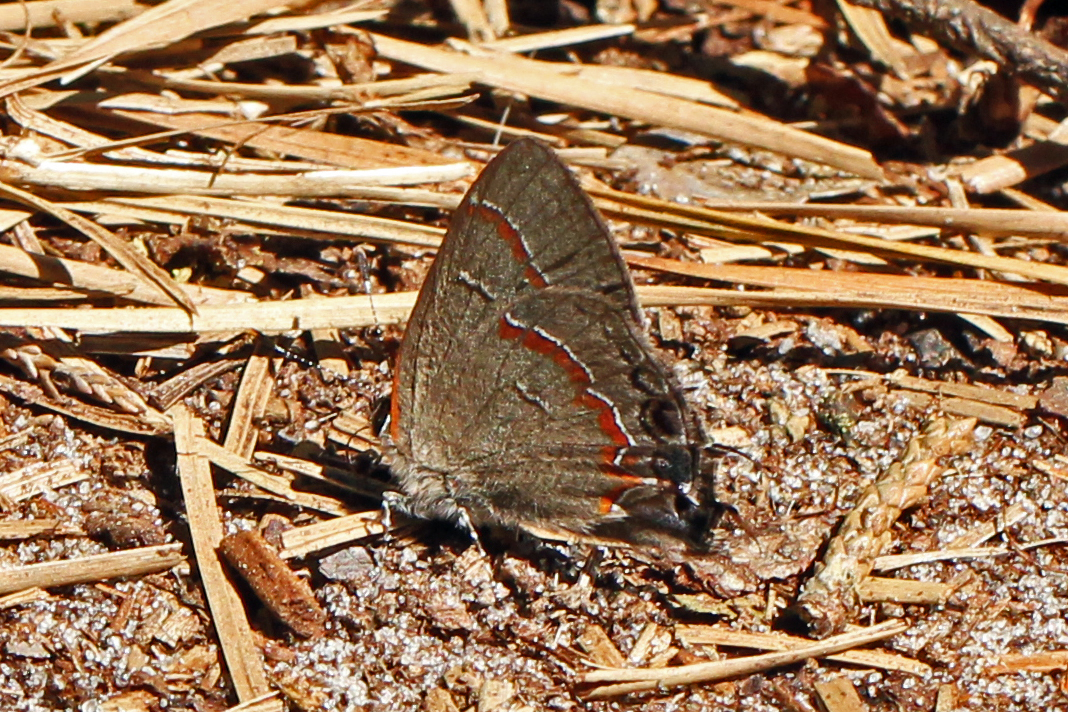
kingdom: Animalia
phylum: Arthropoda
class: Insecta
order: Lepidoptera
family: Lycaenidae
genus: Calycopis
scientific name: Calycopis cecrops
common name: Red-banded hairstreak
